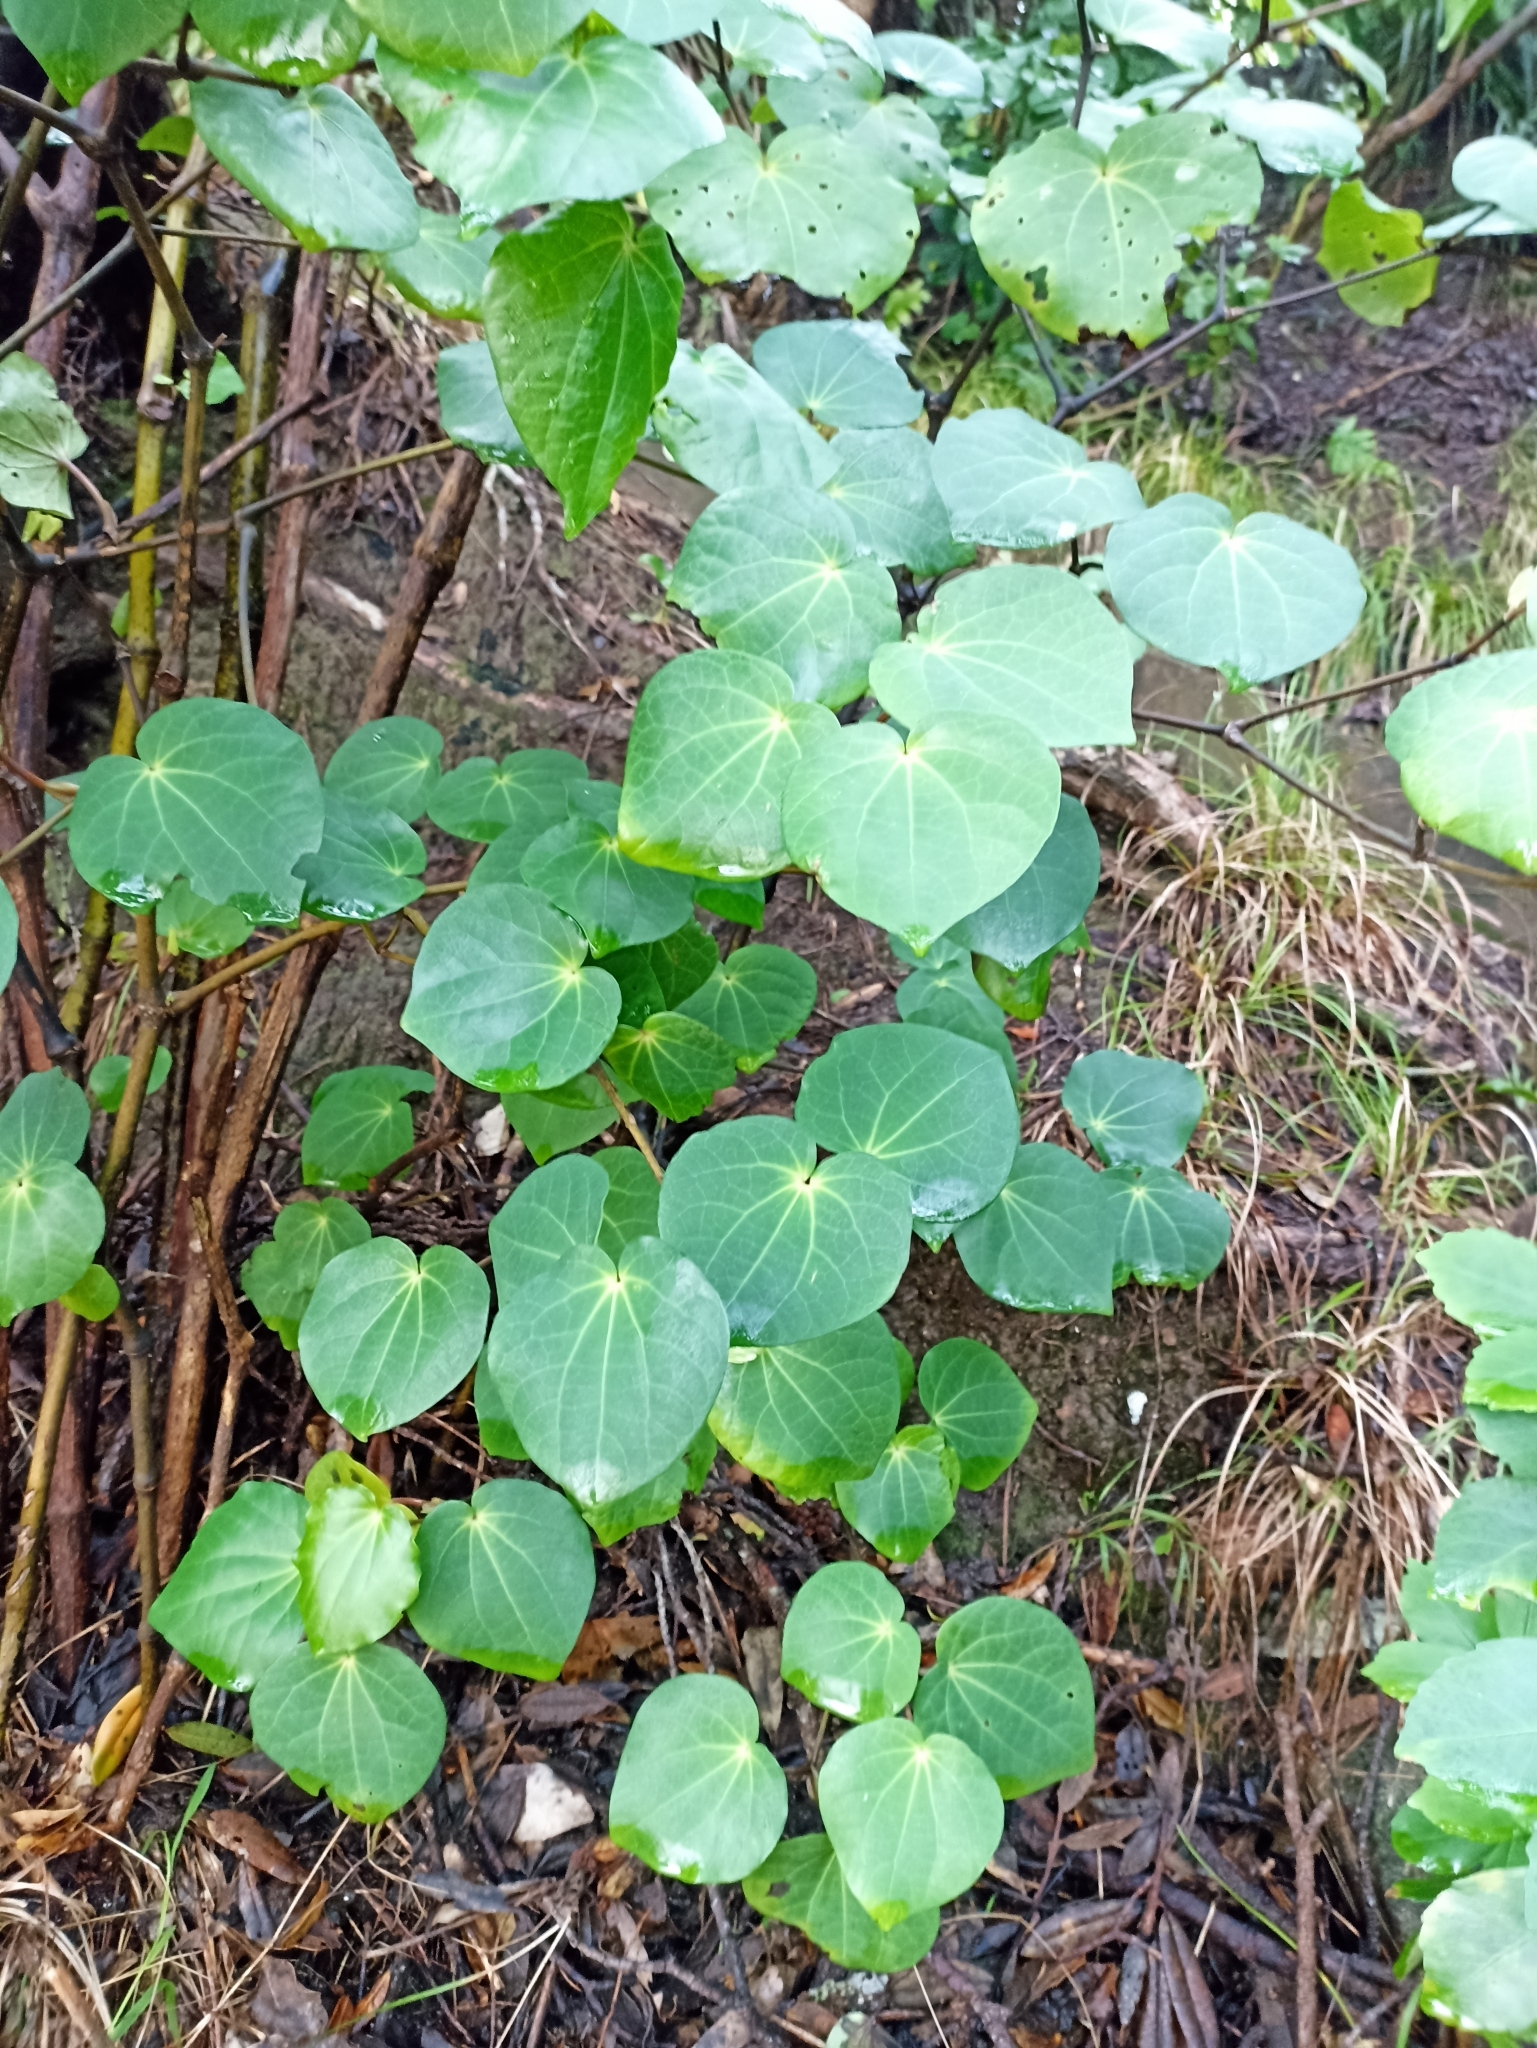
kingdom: Plantae
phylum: Tracheophyta
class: Magnoliopsida
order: Piperales
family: Piperaceae
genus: Macropiper
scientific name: Macropiper excelsum
